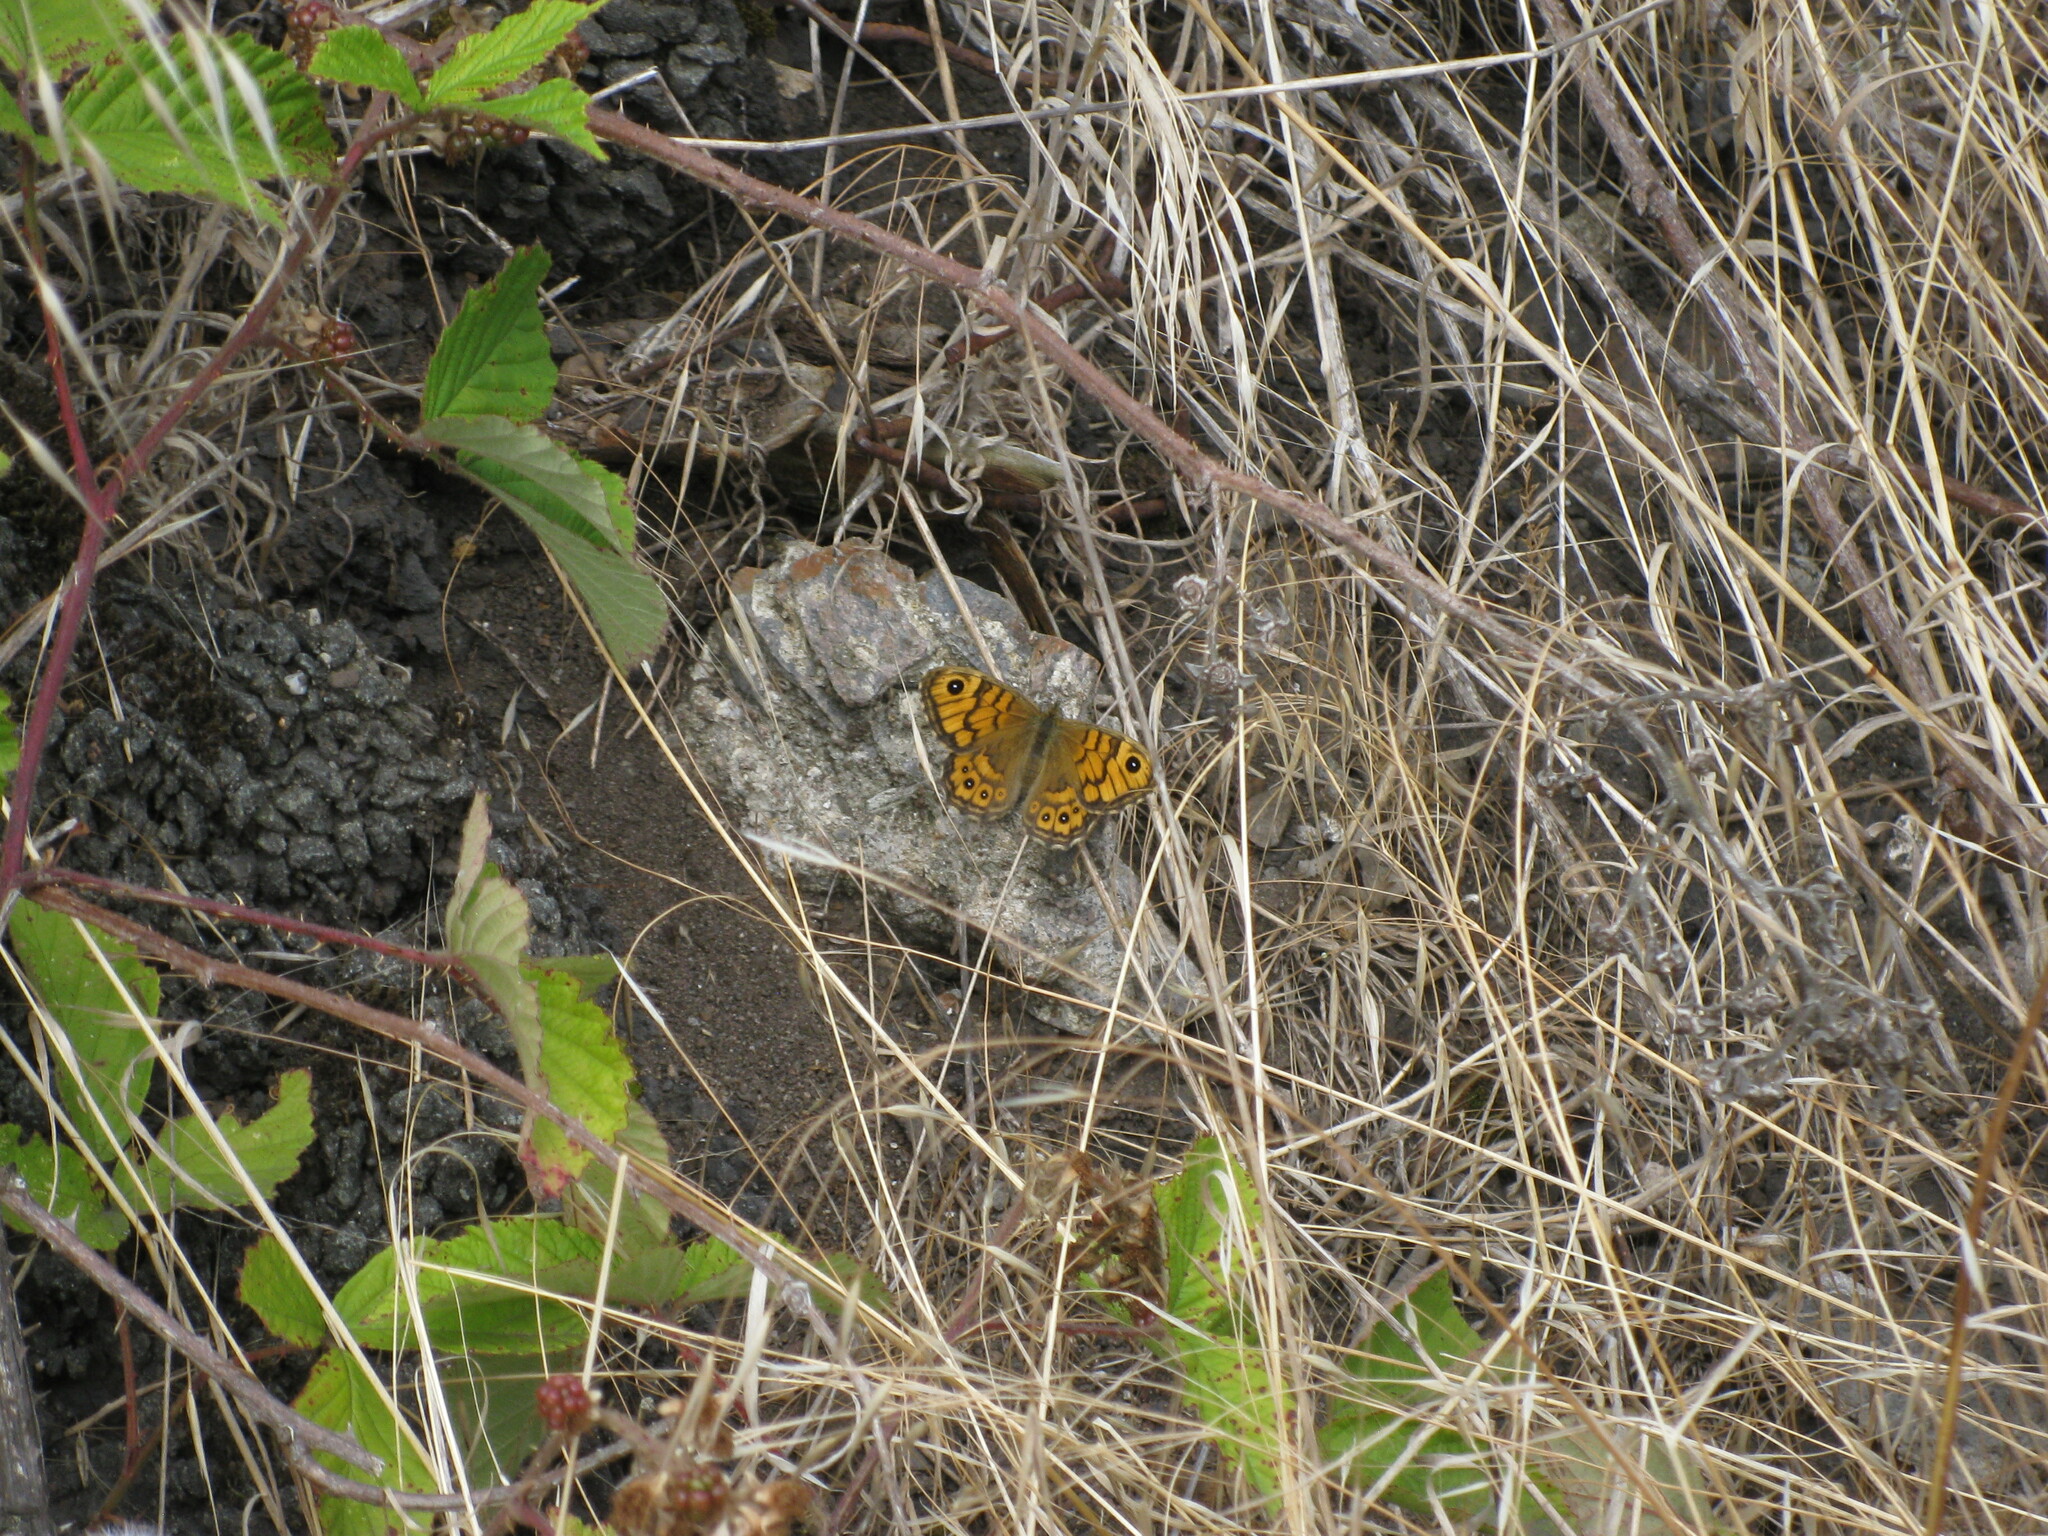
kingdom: Animalia
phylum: Arthropoda
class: Insecta
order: Lepidoptera
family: Nymphalidae
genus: Pararge
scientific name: Pararge Lasiommata megera
